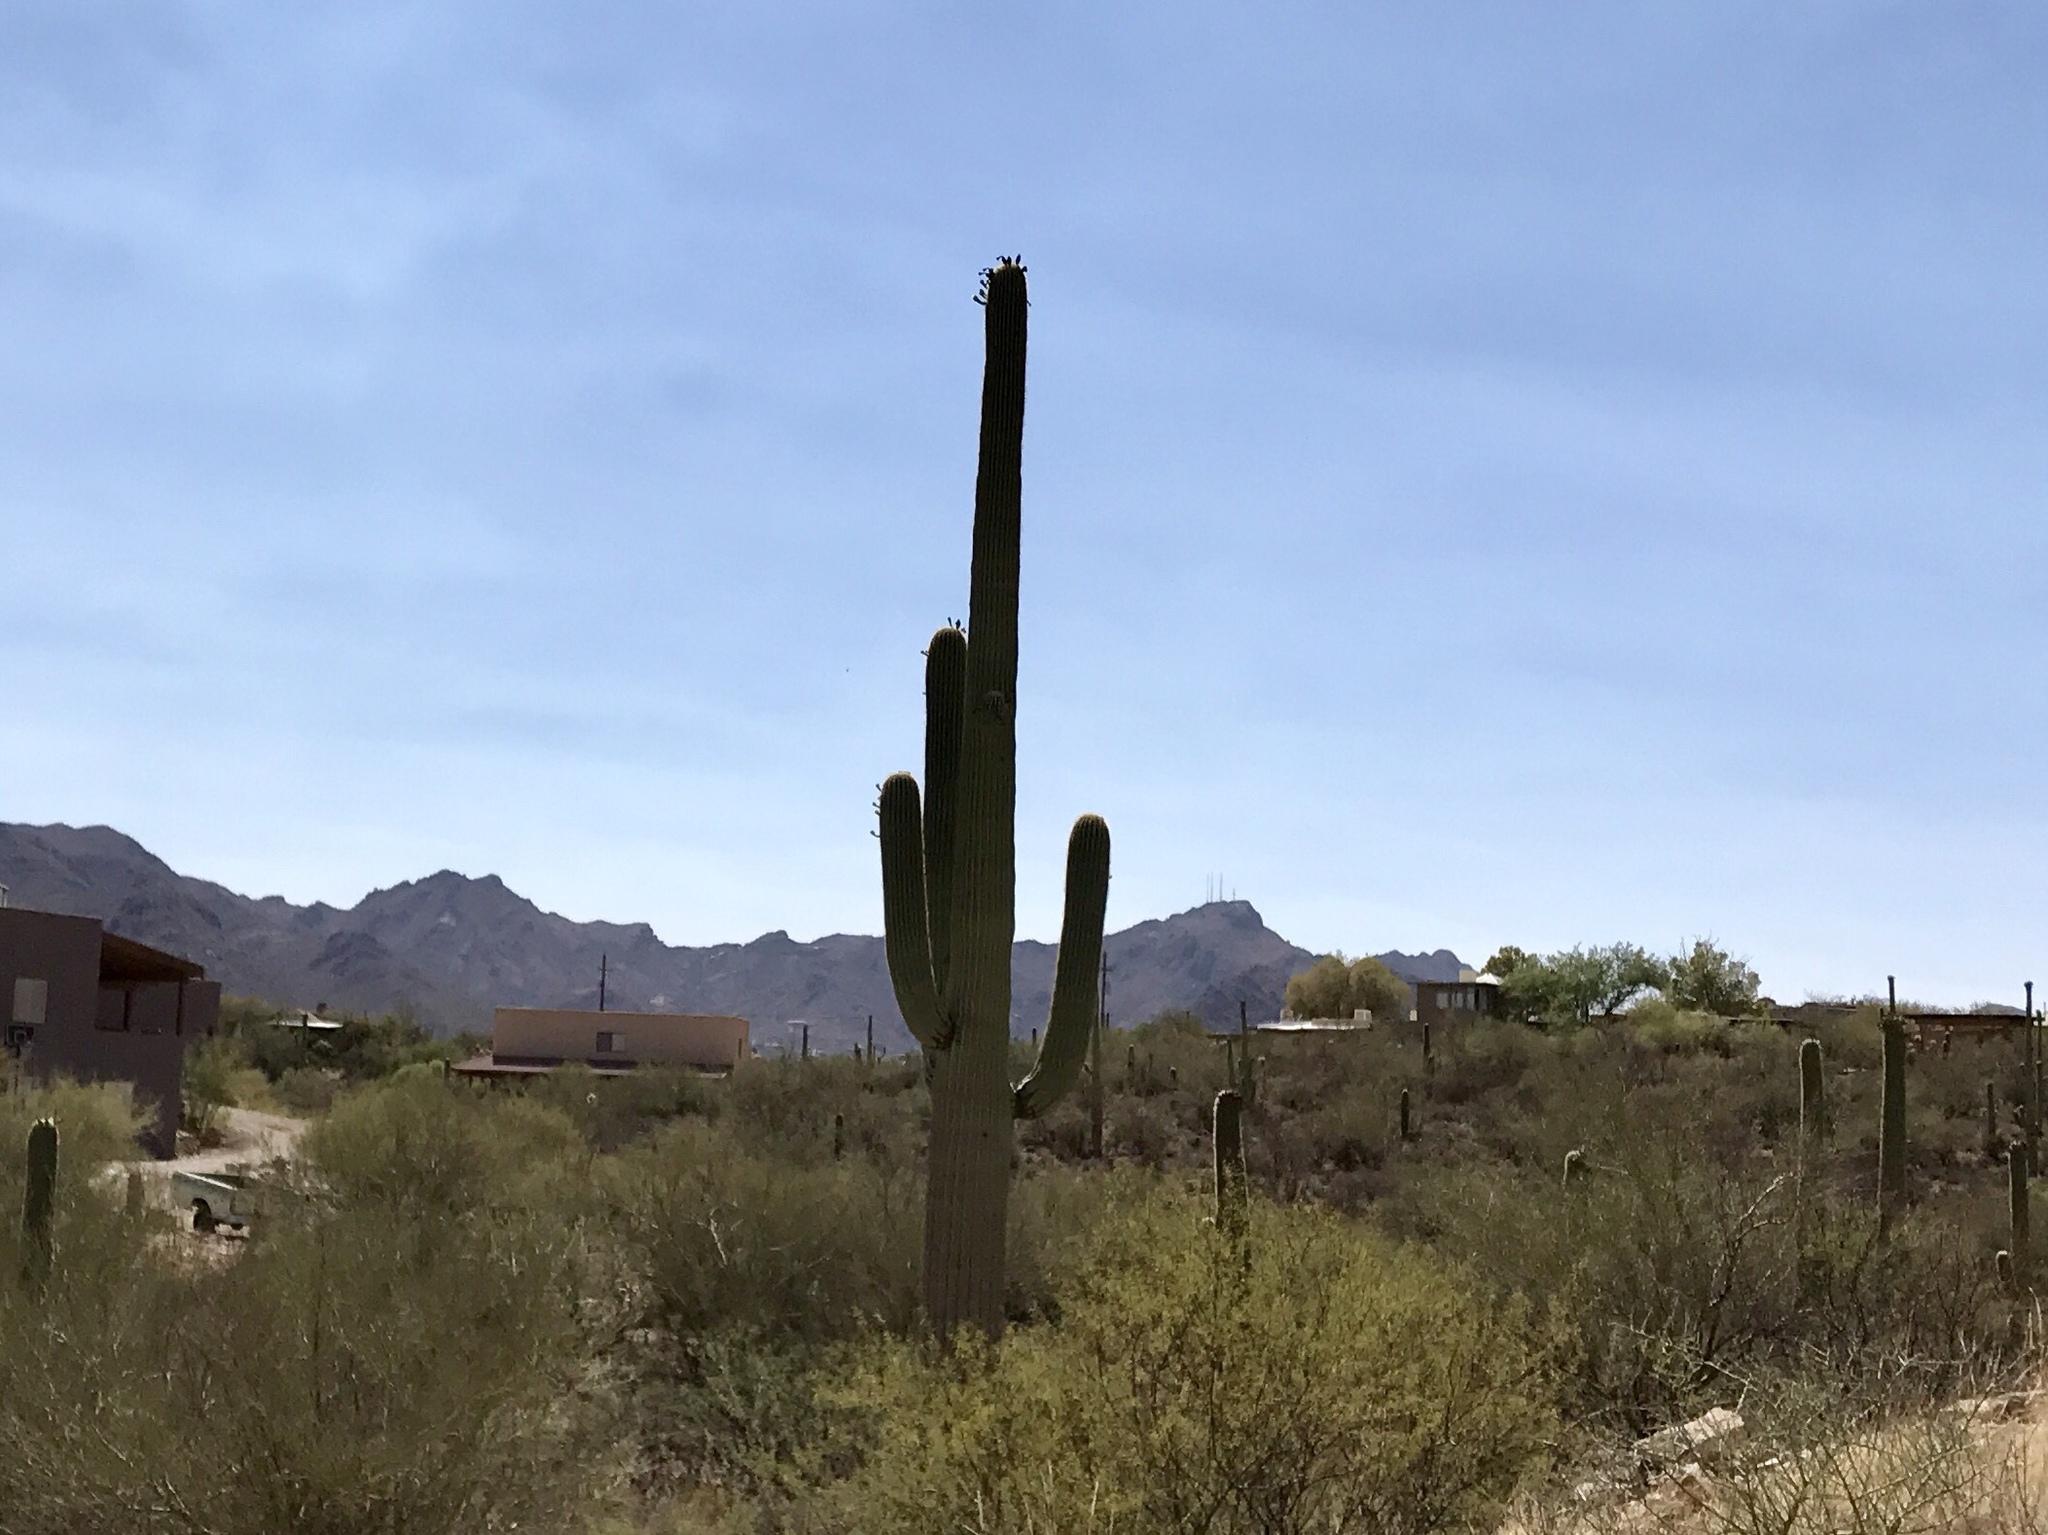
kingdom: Plantae
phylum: Tracheophyta
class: Magnoliopsida
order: Caryophyllales
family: Cactaceae
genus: Carnegiea
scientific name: Carnegiea gigantea
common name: Saguaro
